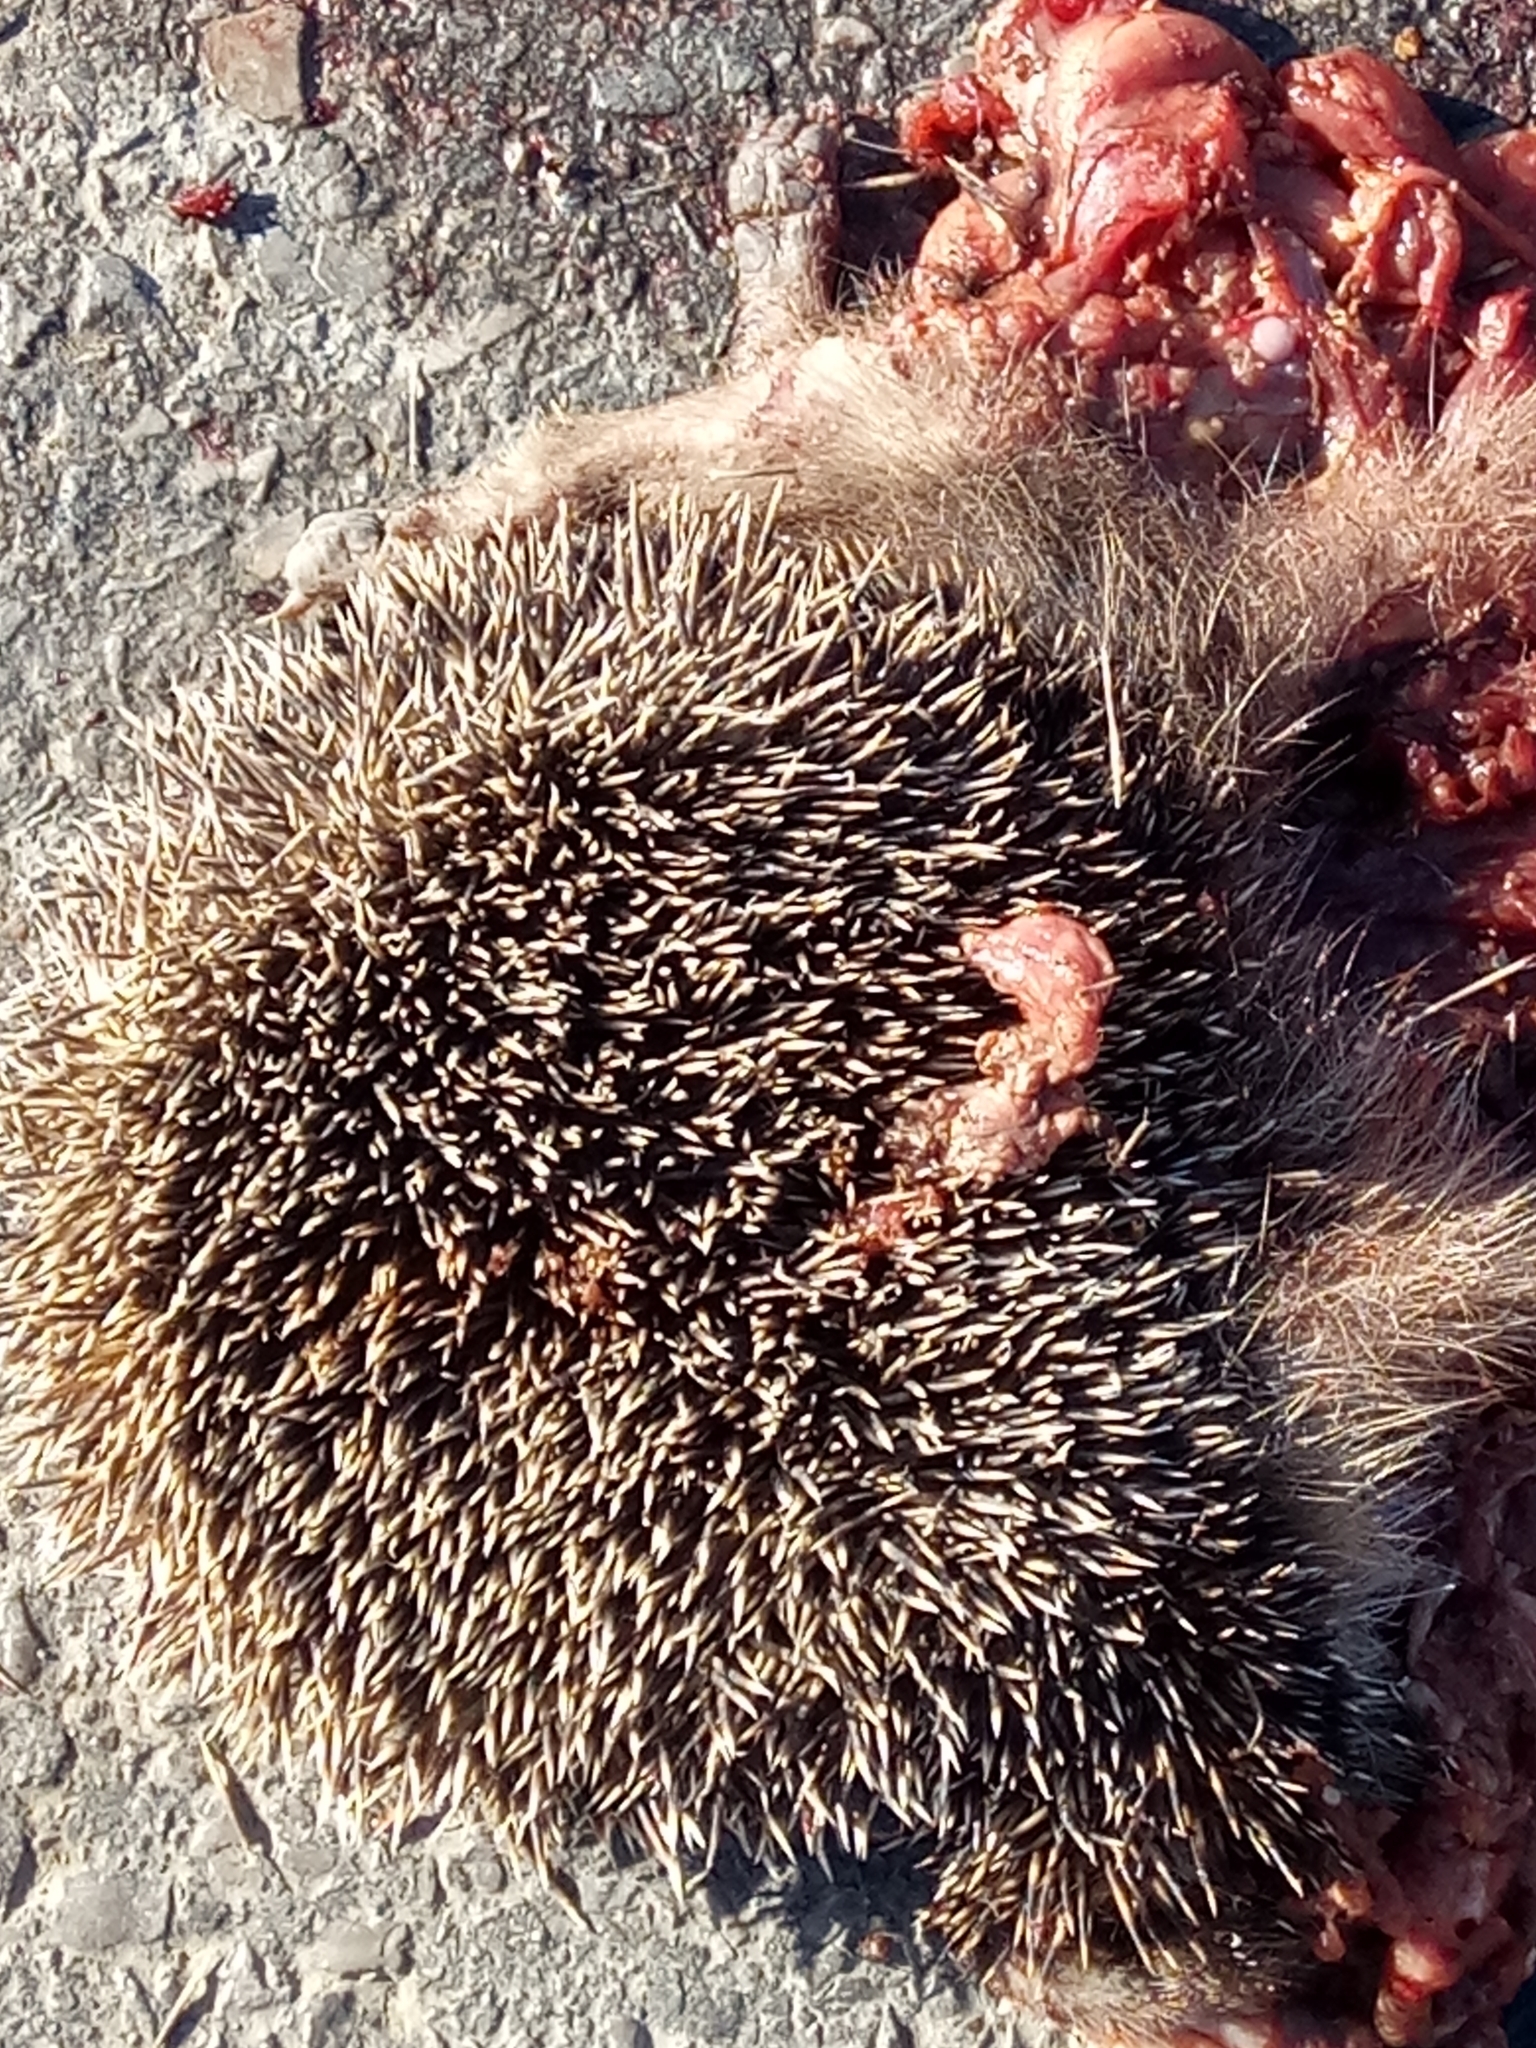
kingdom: Animalia
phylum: Chordata
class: Mammalia
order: Erinaceomorpha
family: Erinaceidae
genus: Atelerix
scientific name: Atelerix algirus
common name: North african hedgehog
